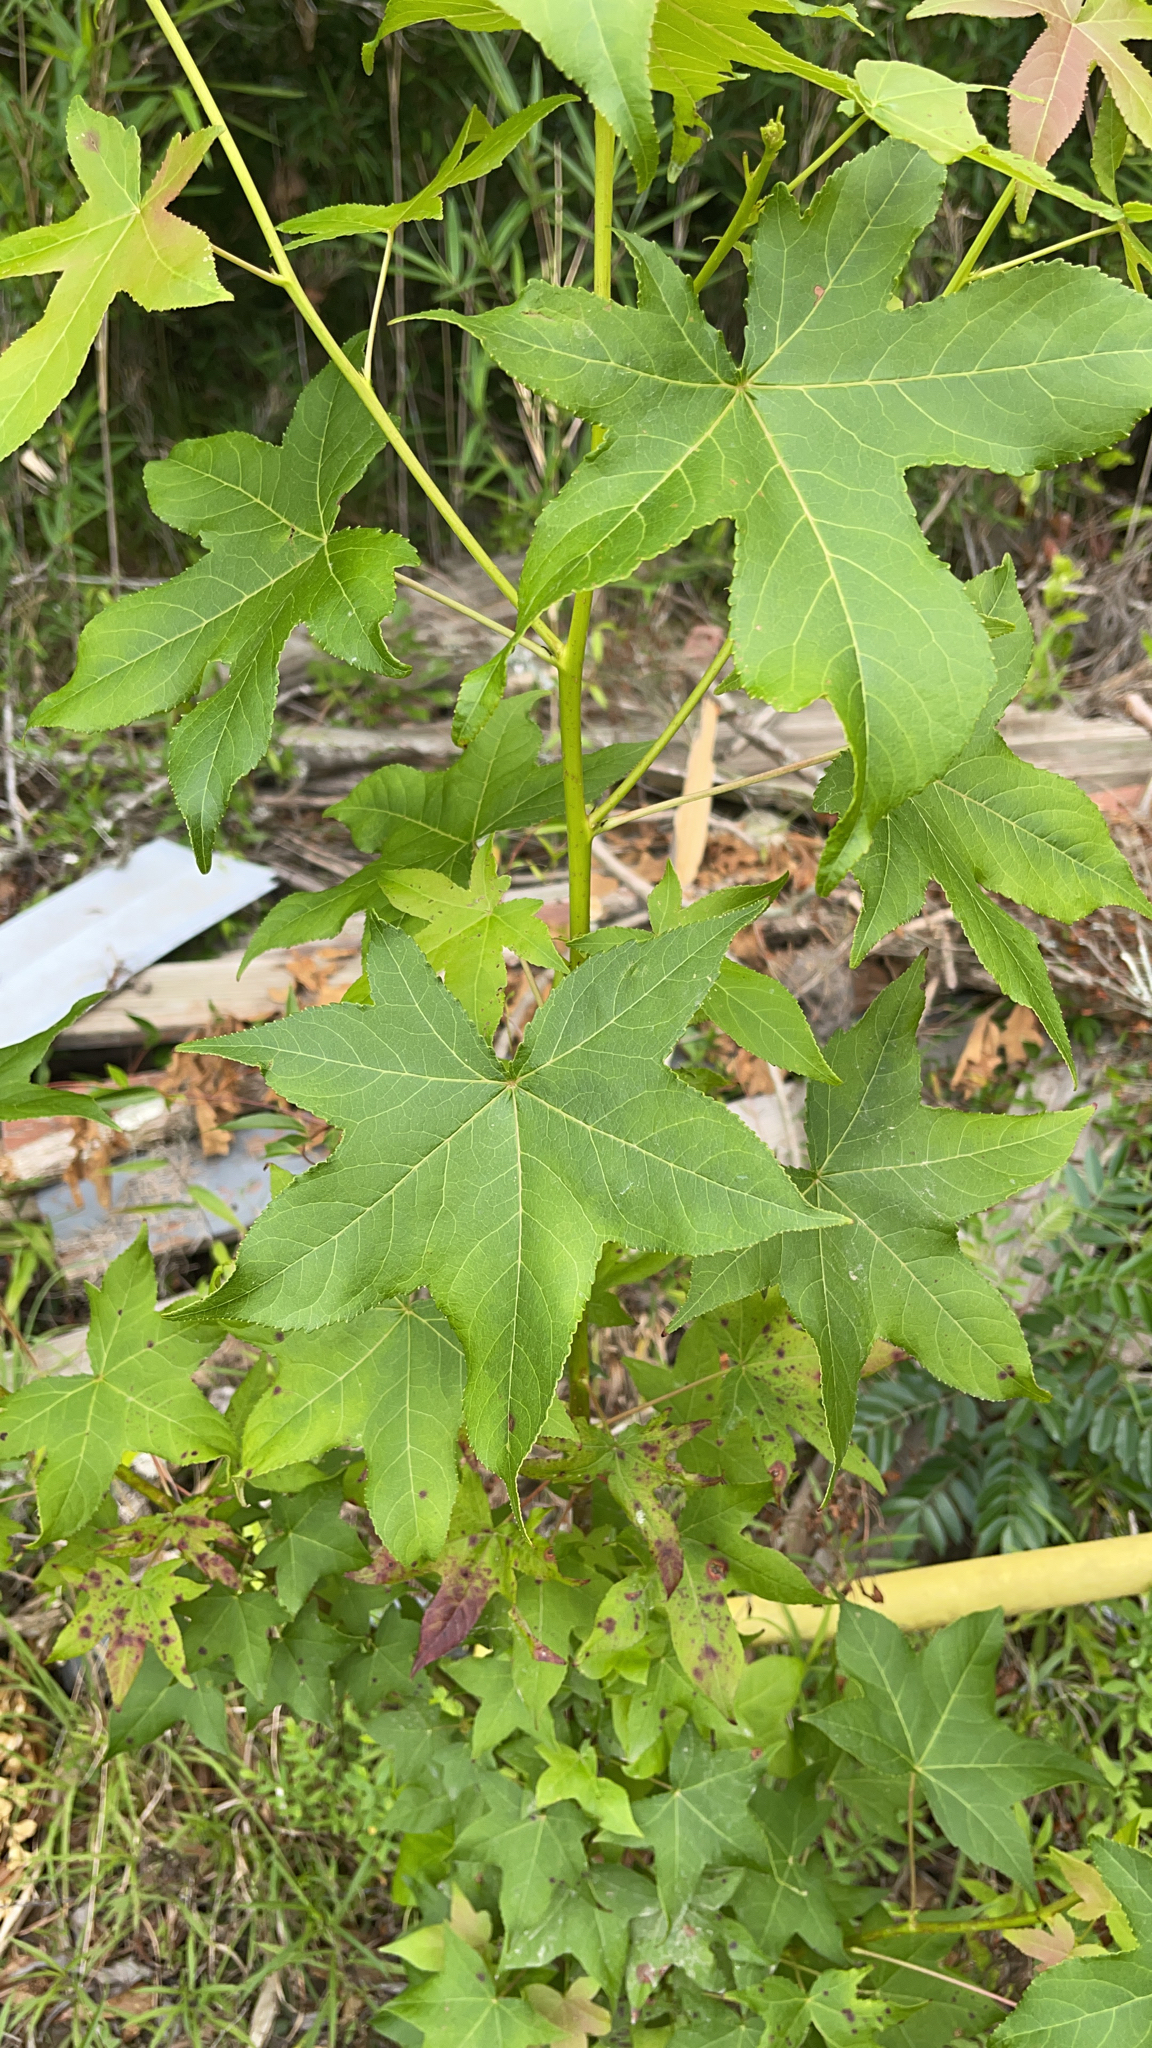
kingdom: Plantae
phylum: Tracheophyta
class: Magnoliopsida
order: Saxifragales
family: Altingiaceae
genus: Liquidambar
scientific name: Liquidambar styraciflua
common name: Sweet gum
